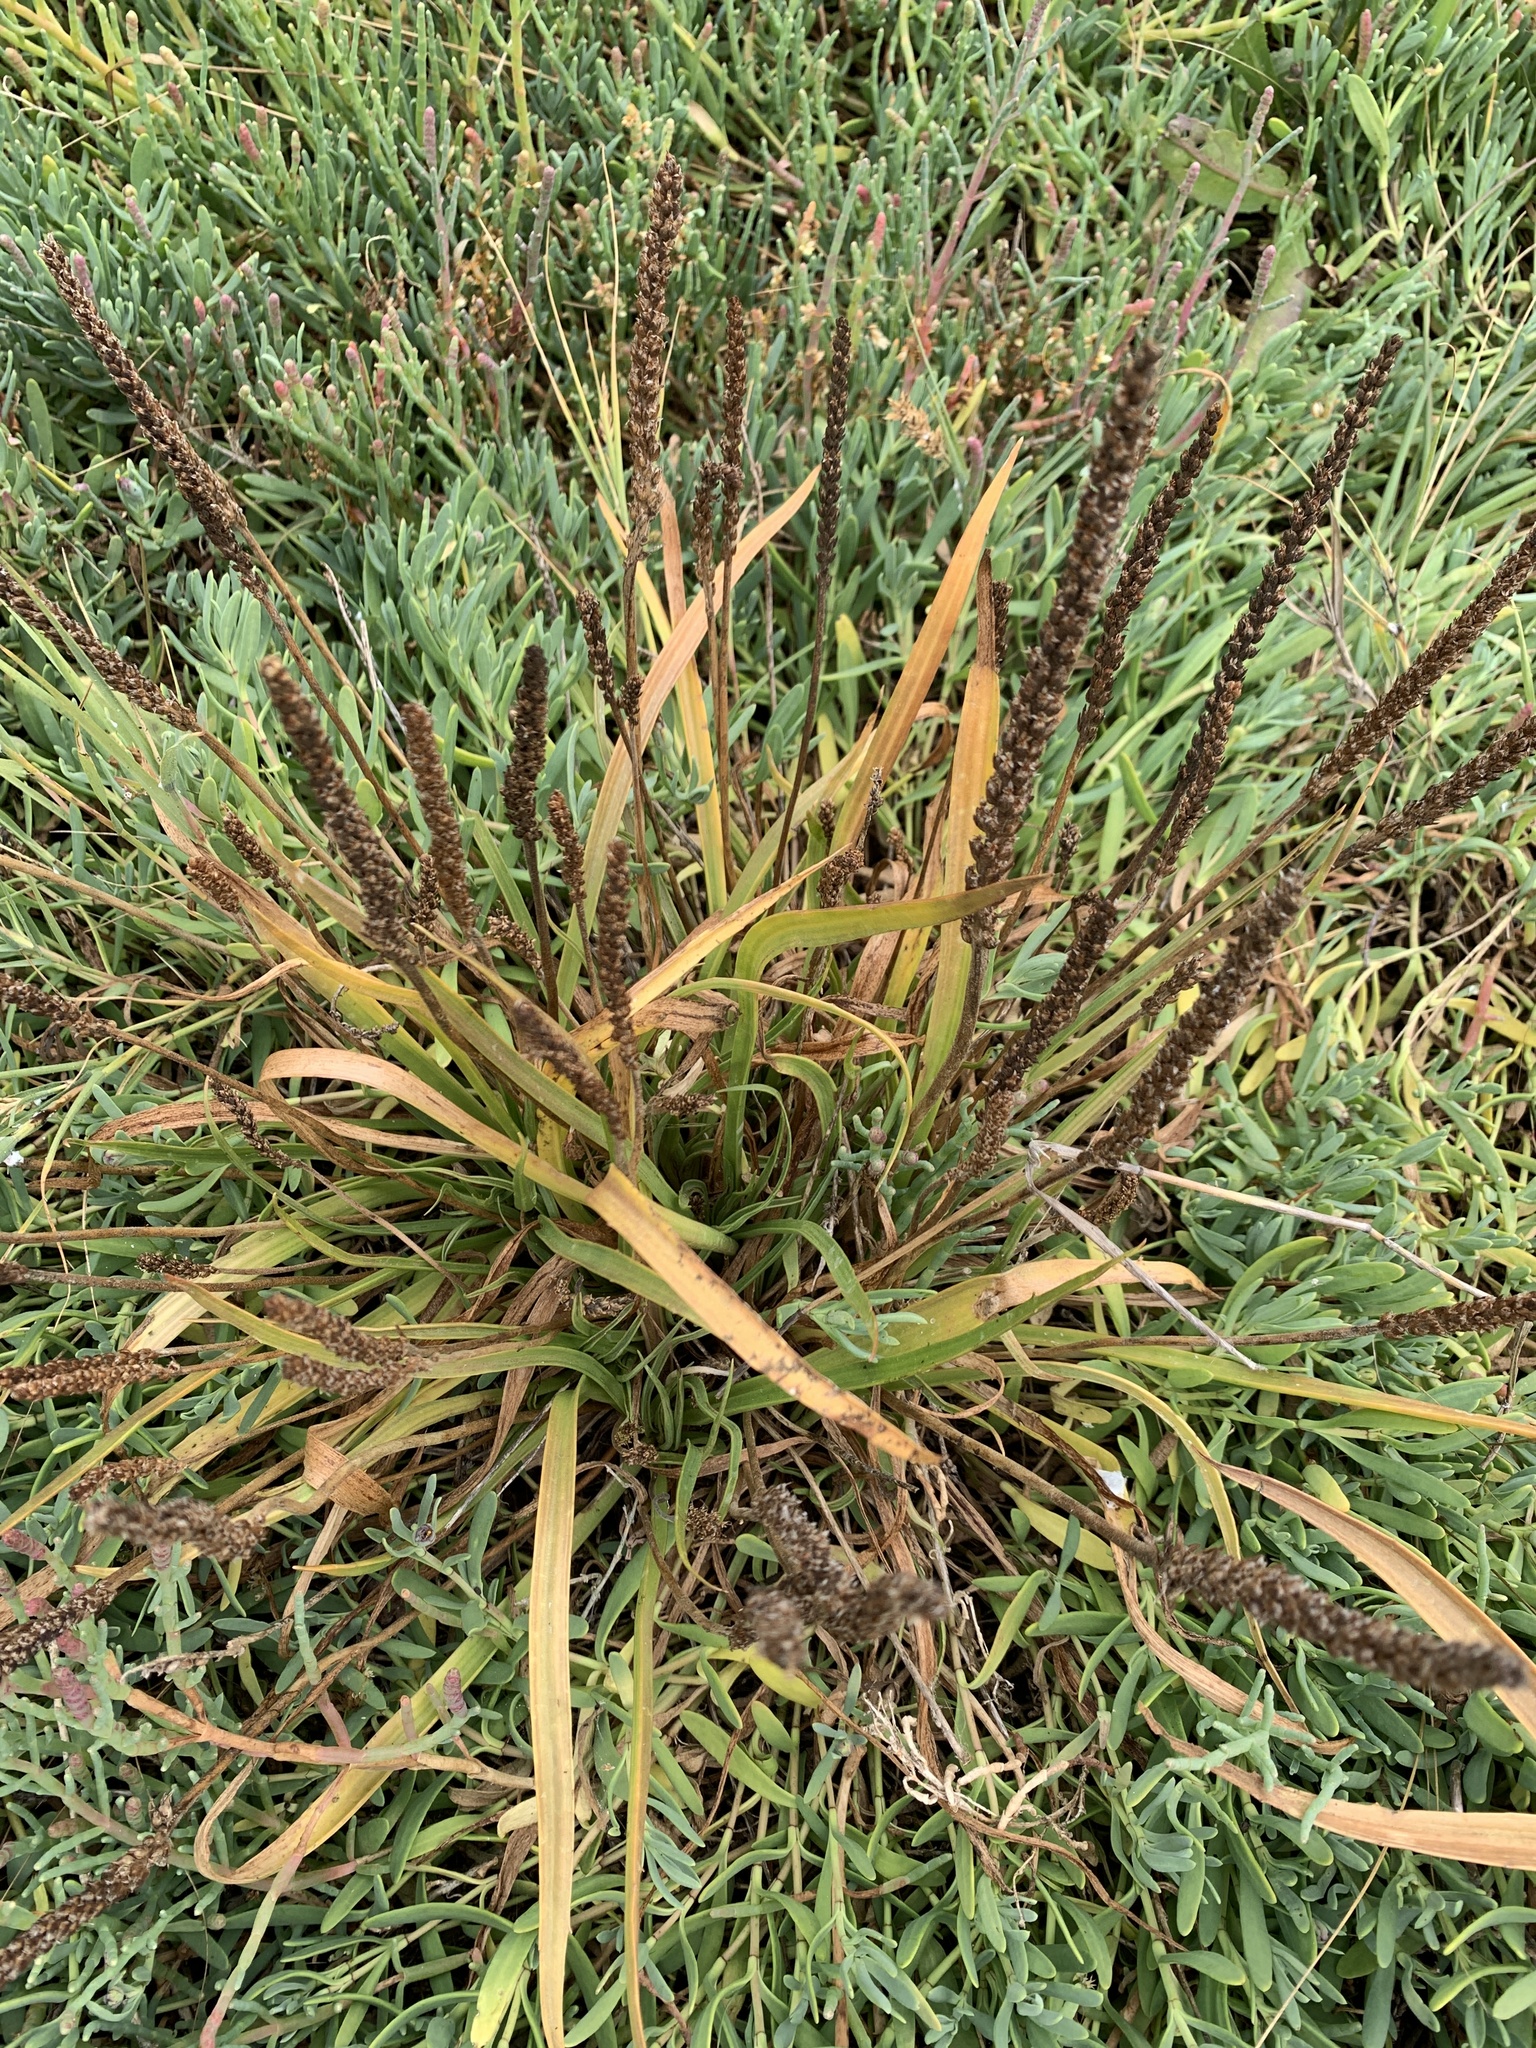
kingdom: Plantae
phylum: Tracheophyta
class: Magnoliopsida
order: Lamiales
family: Plantaginaceae
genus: Plantago
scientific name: Plantago maritima
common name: Sea plantain
